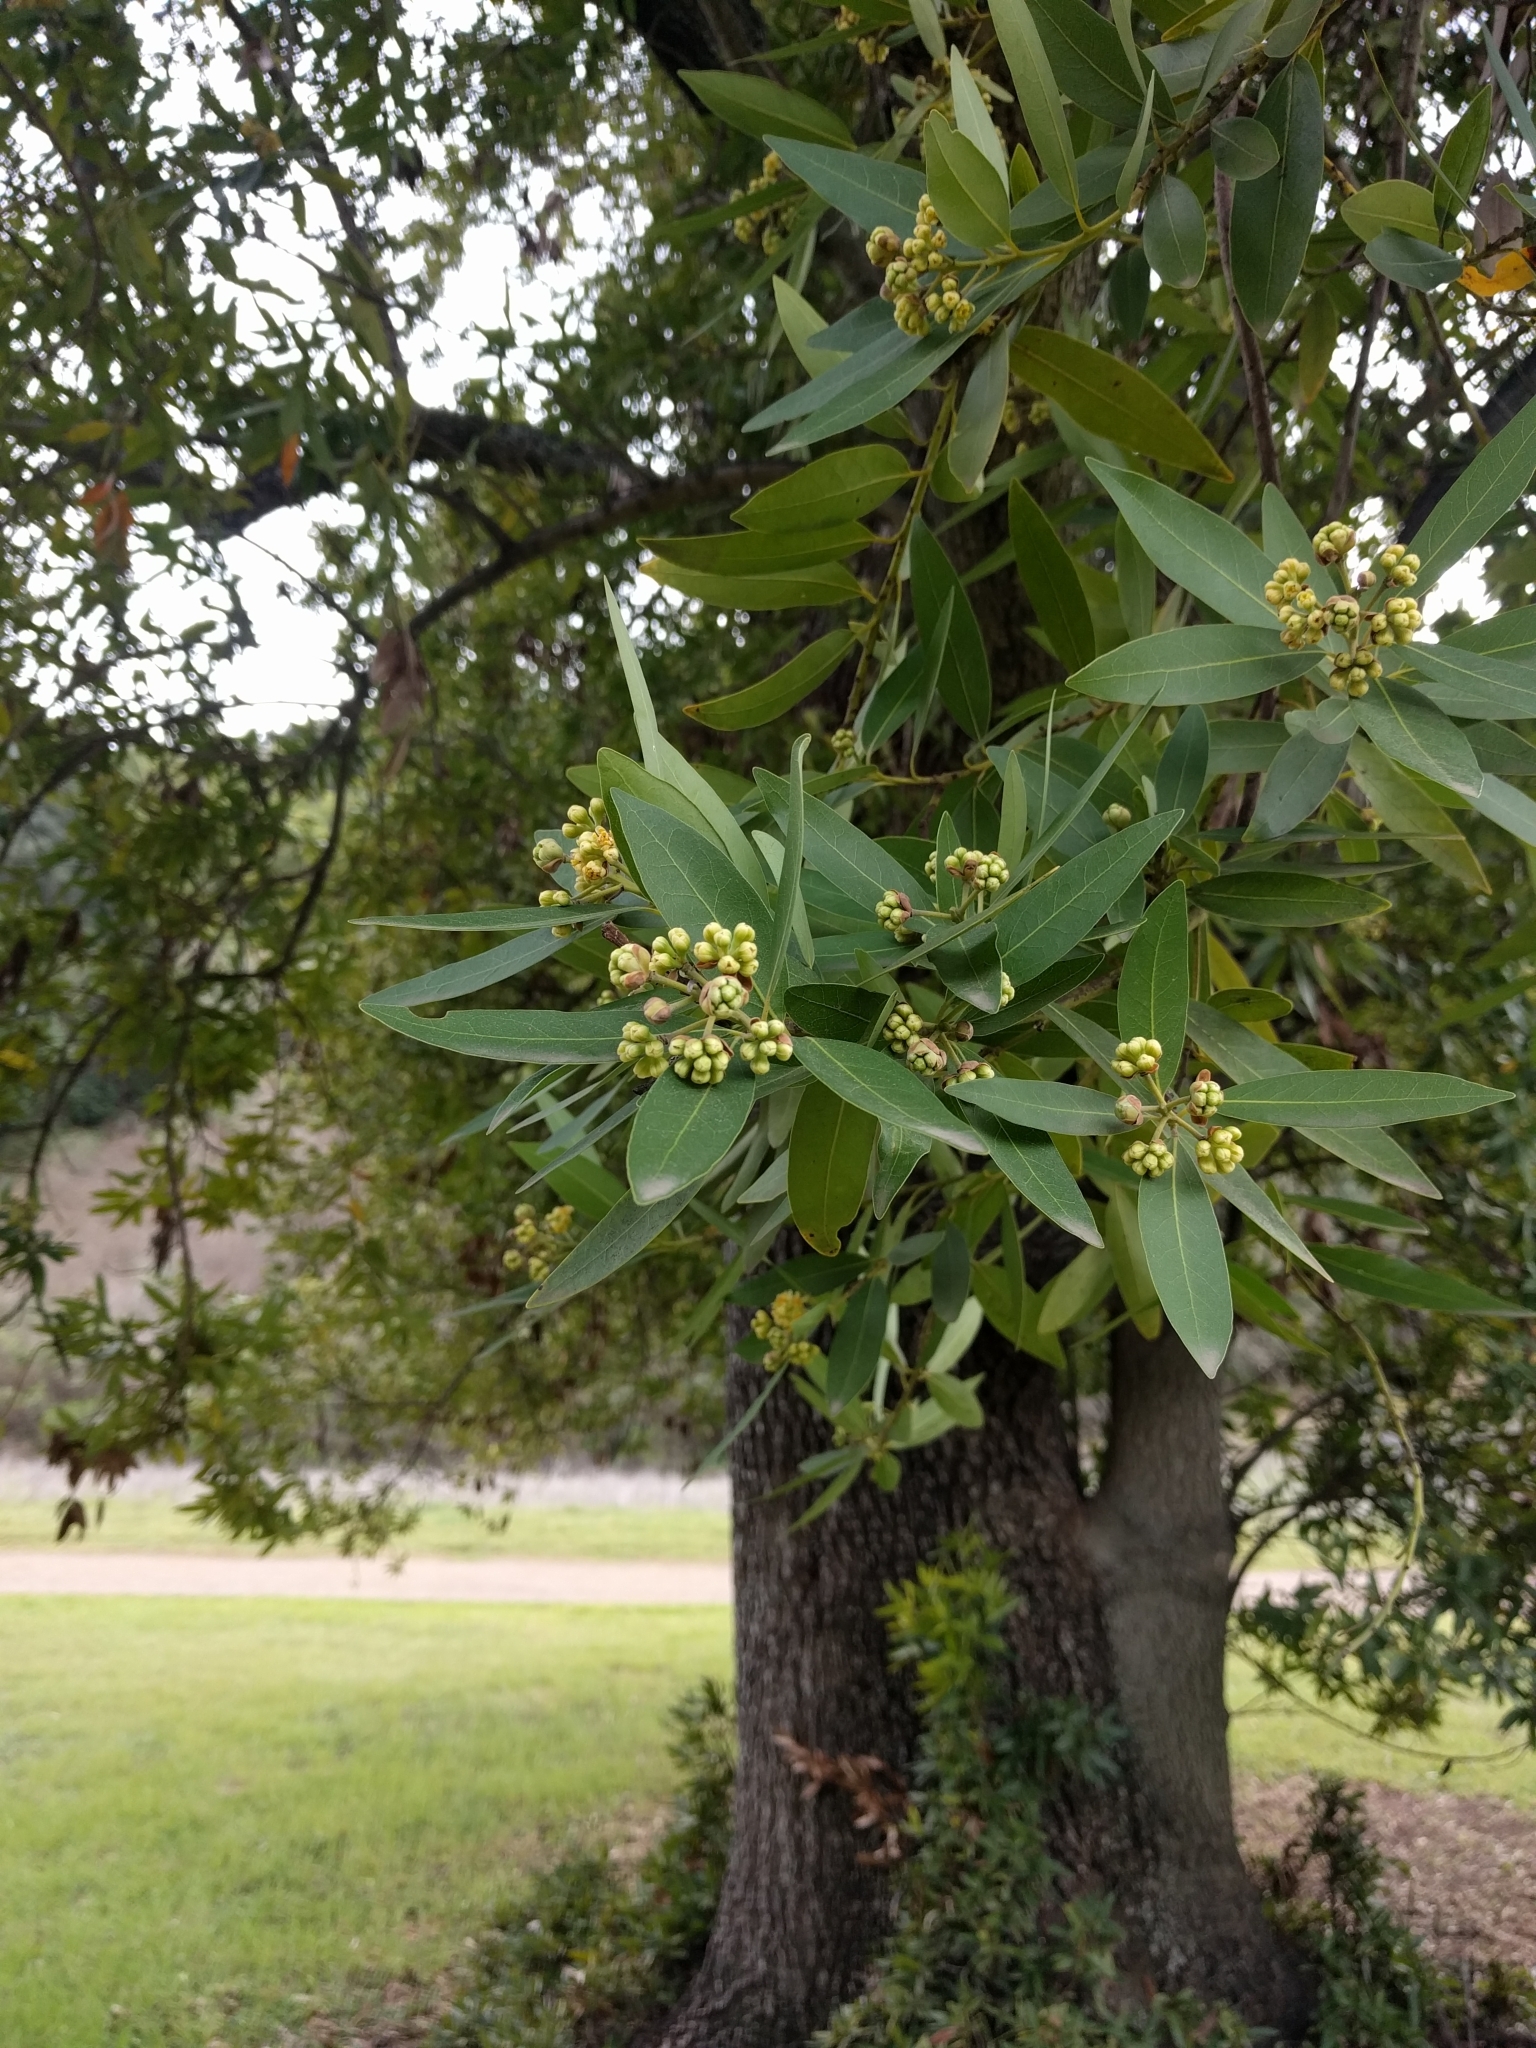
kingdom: Plantae
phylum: Tracheophyta
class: Magnoliopsida
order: Laurales
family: Lauraceae
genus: Umbellularia
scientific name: Umbellularia californica
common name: California bay
